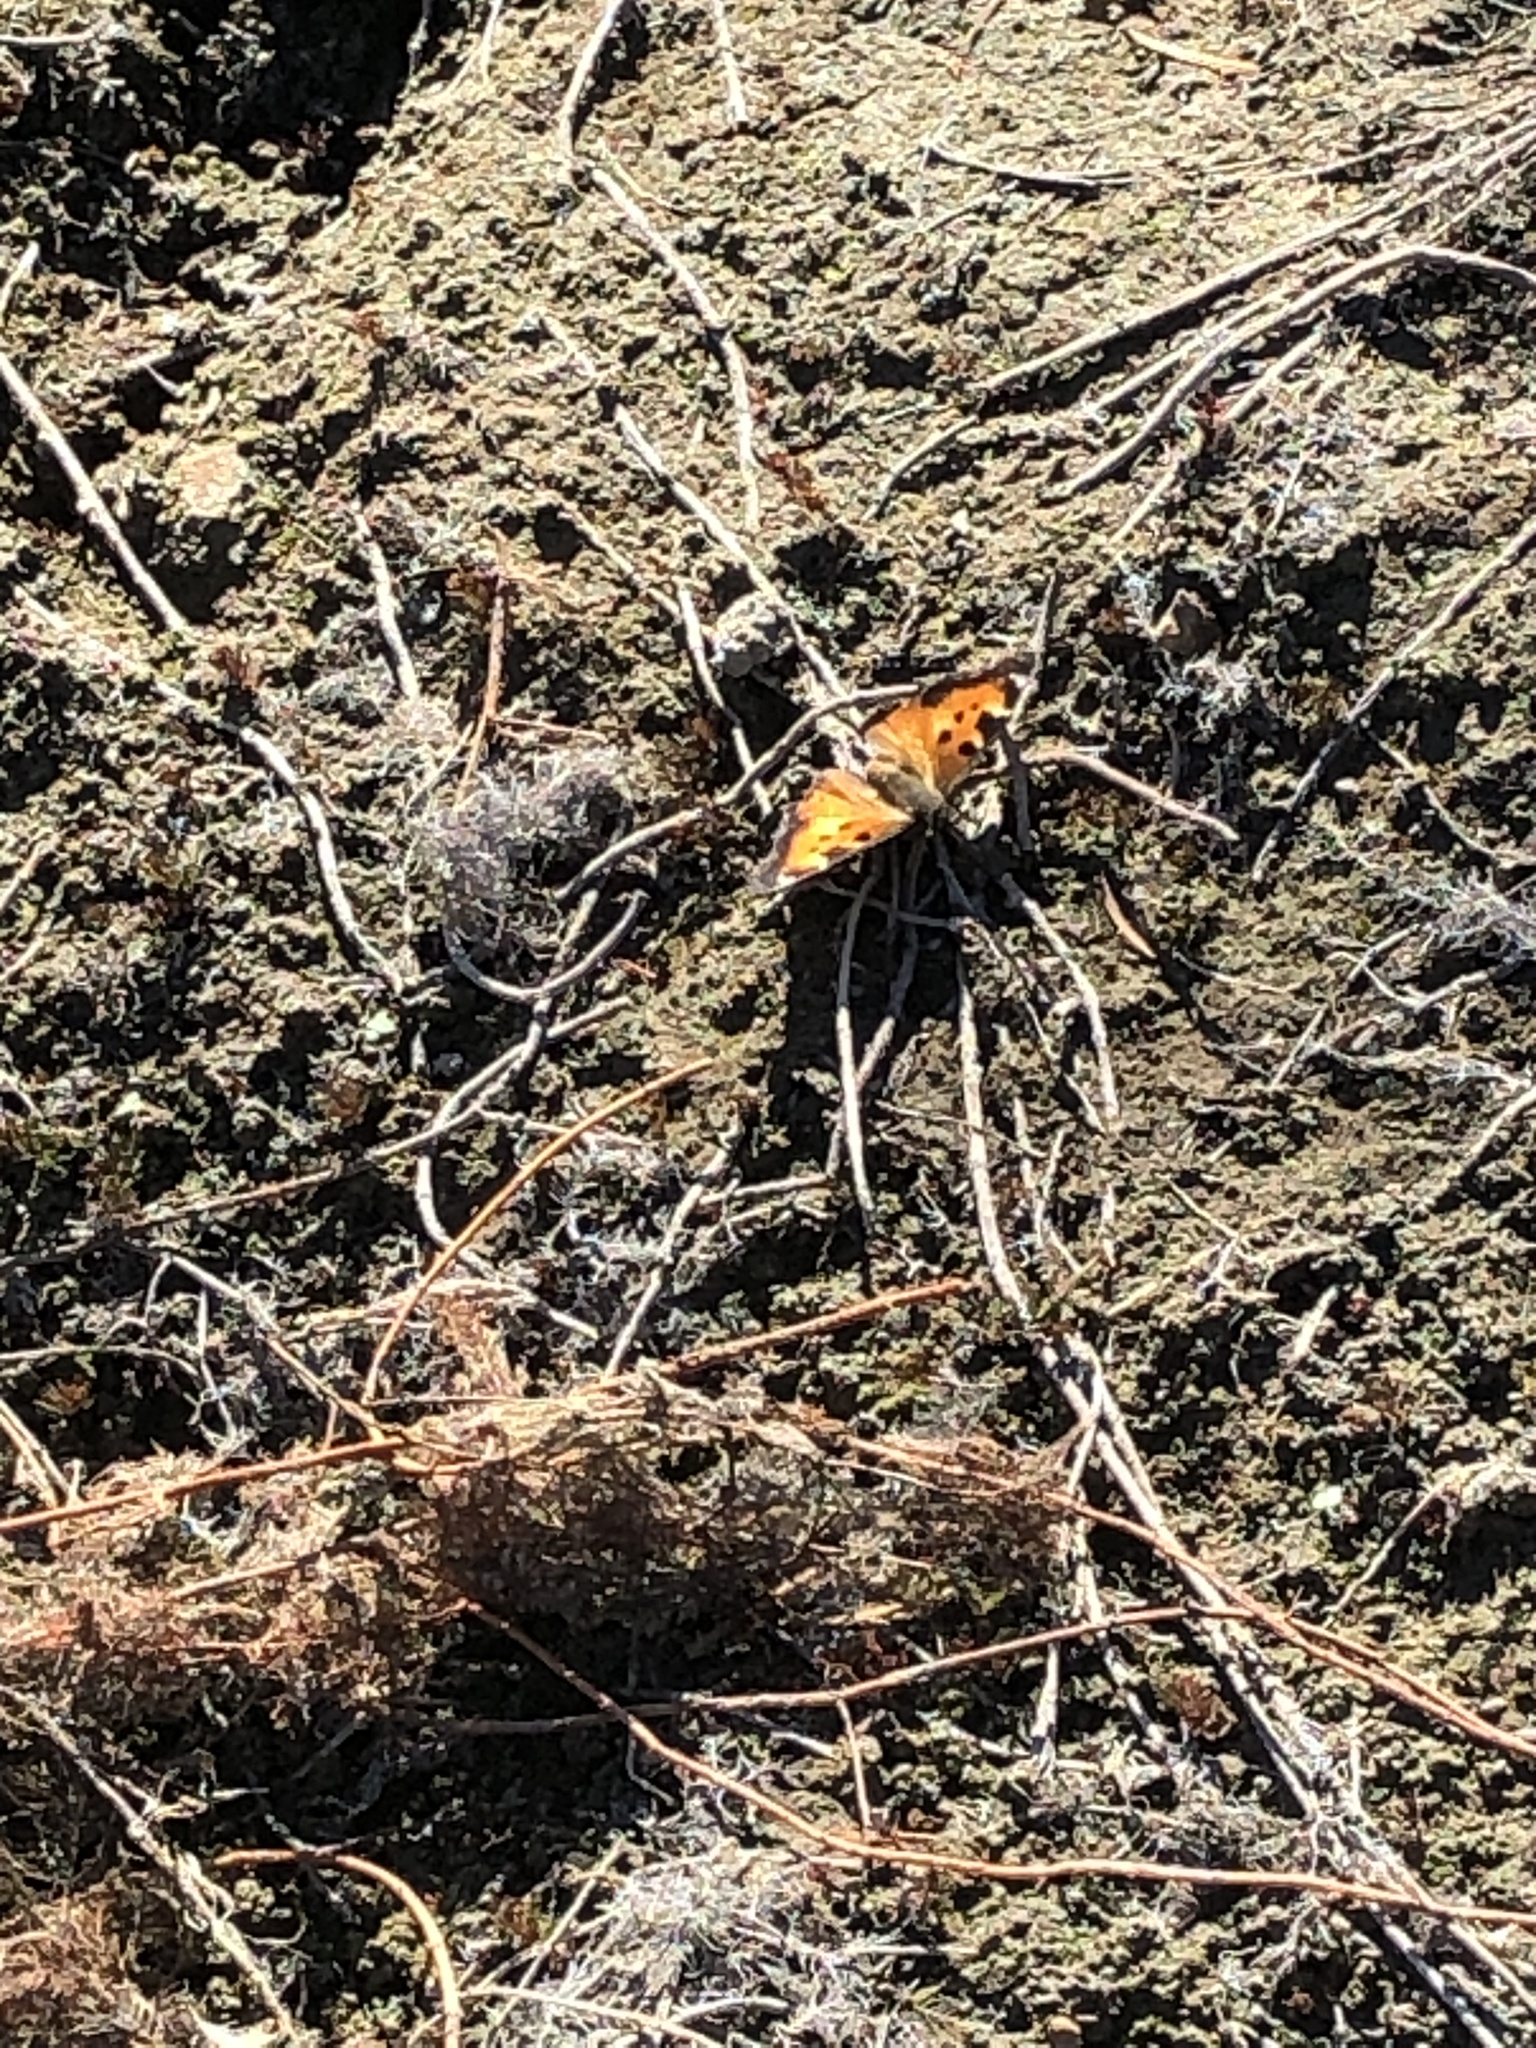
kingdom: Animalia
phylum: Arthropoda
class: Insecta
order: Lepidoptera
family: Nymphalidae
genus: Nymphalis
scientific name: Nymphalis californica
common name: California tortoiseshell
